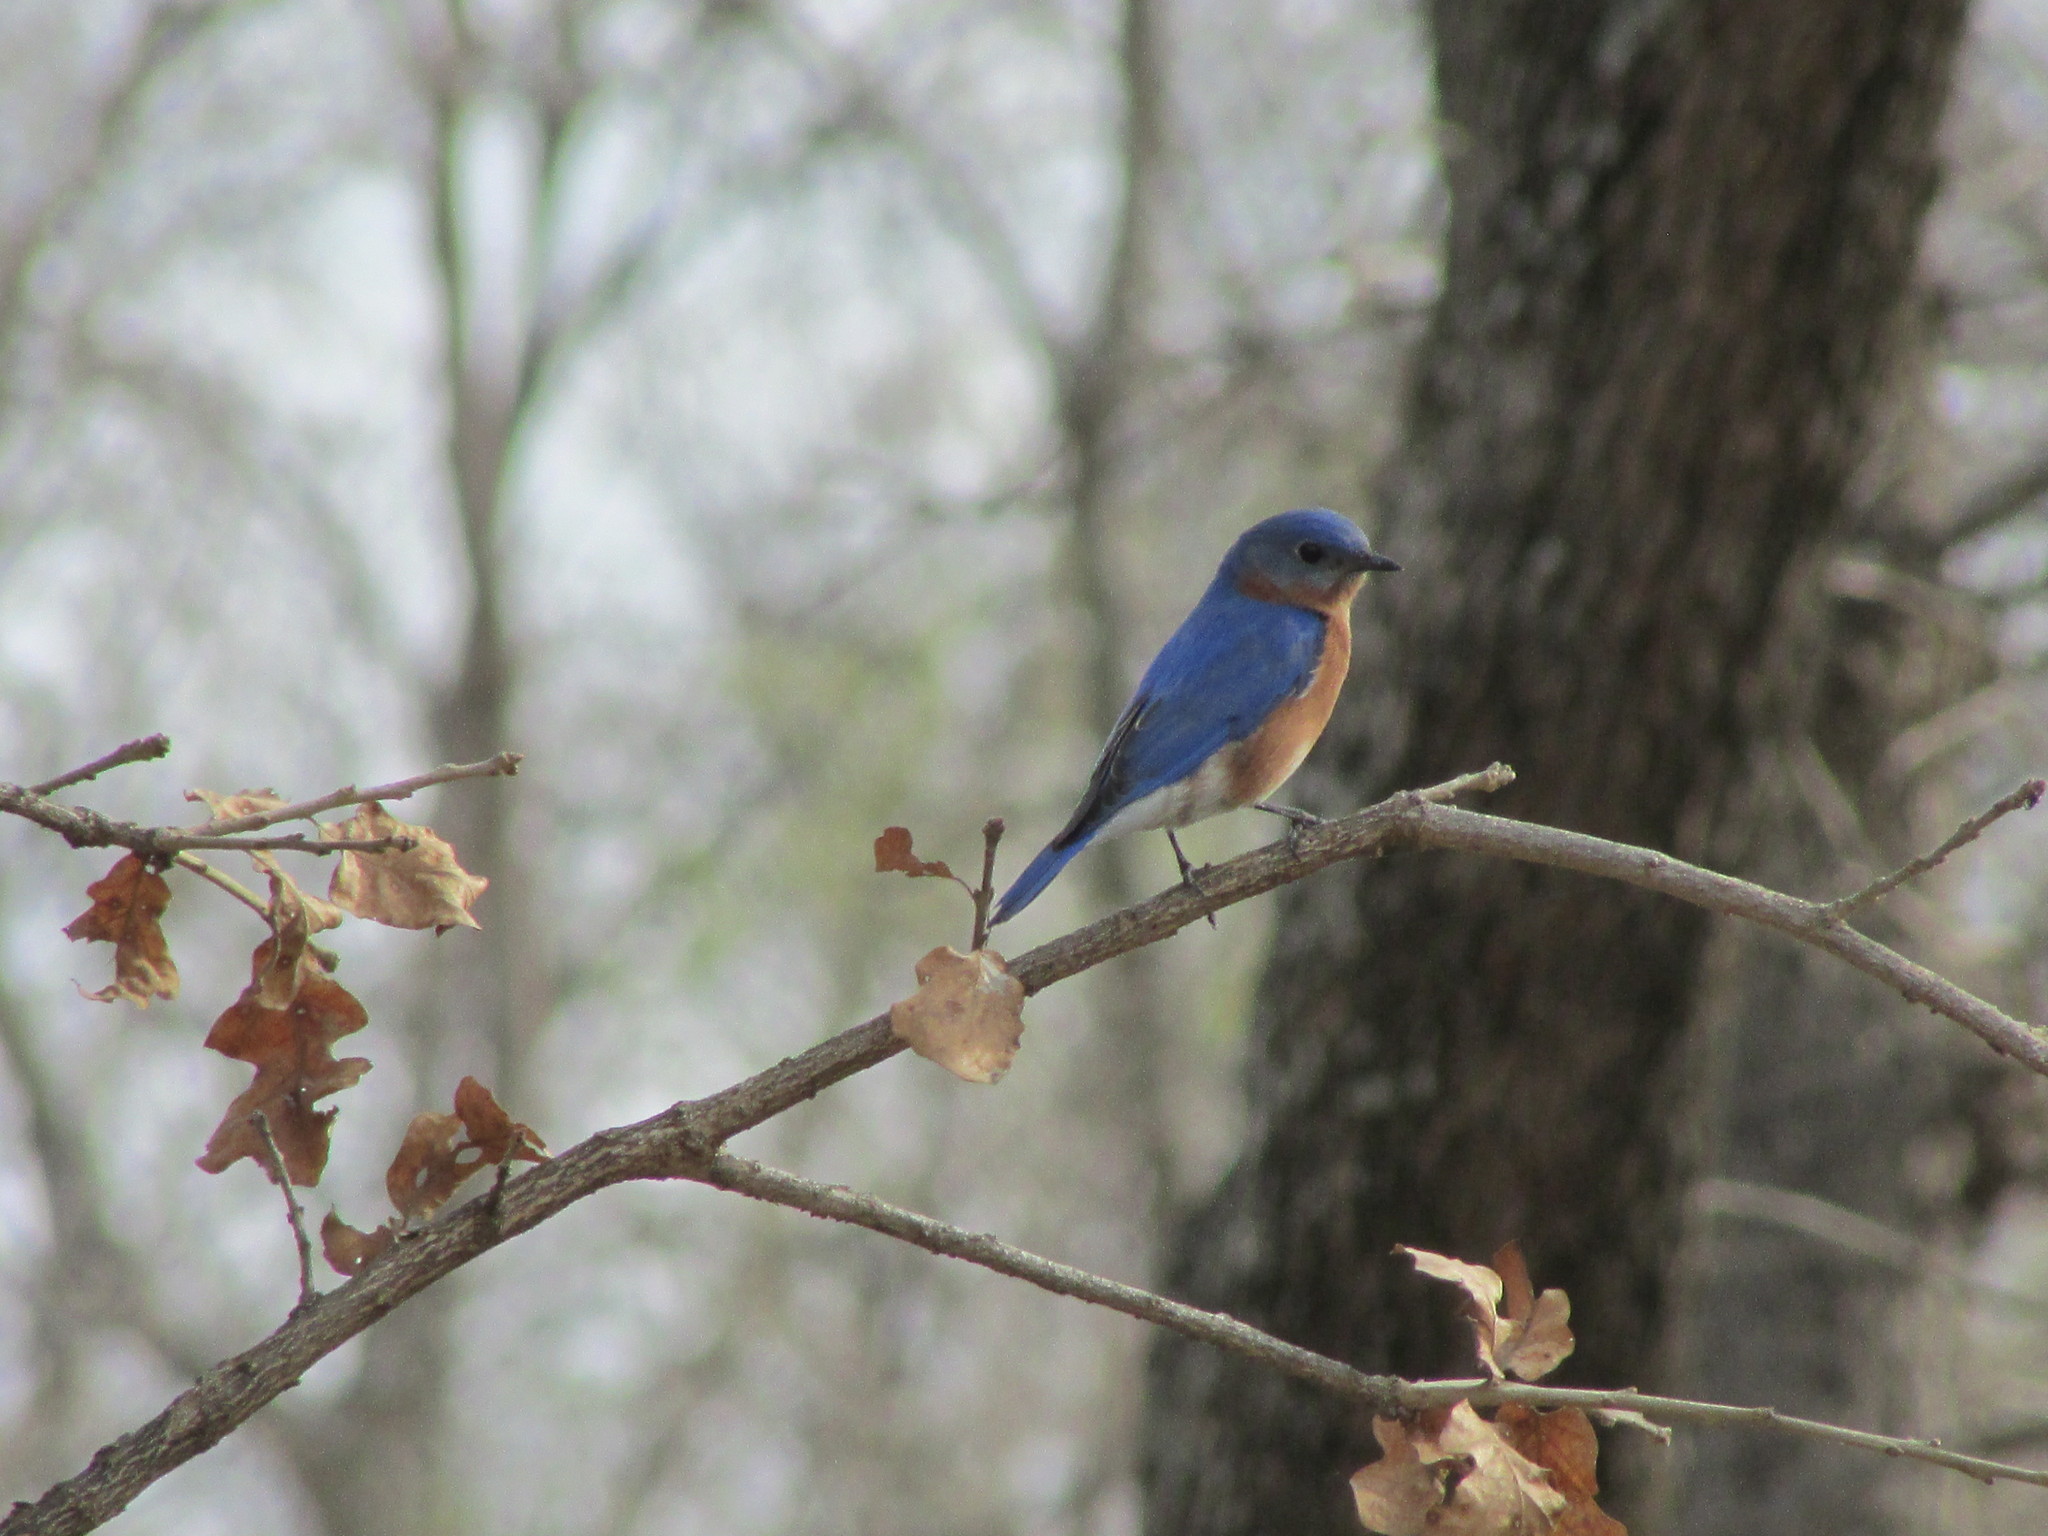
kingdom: Animalia
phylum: Chordata
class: Aves
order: Passeriformes
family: Turdidae
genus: Sialia
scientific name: Sialia sialis
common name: Eastern bluebird
